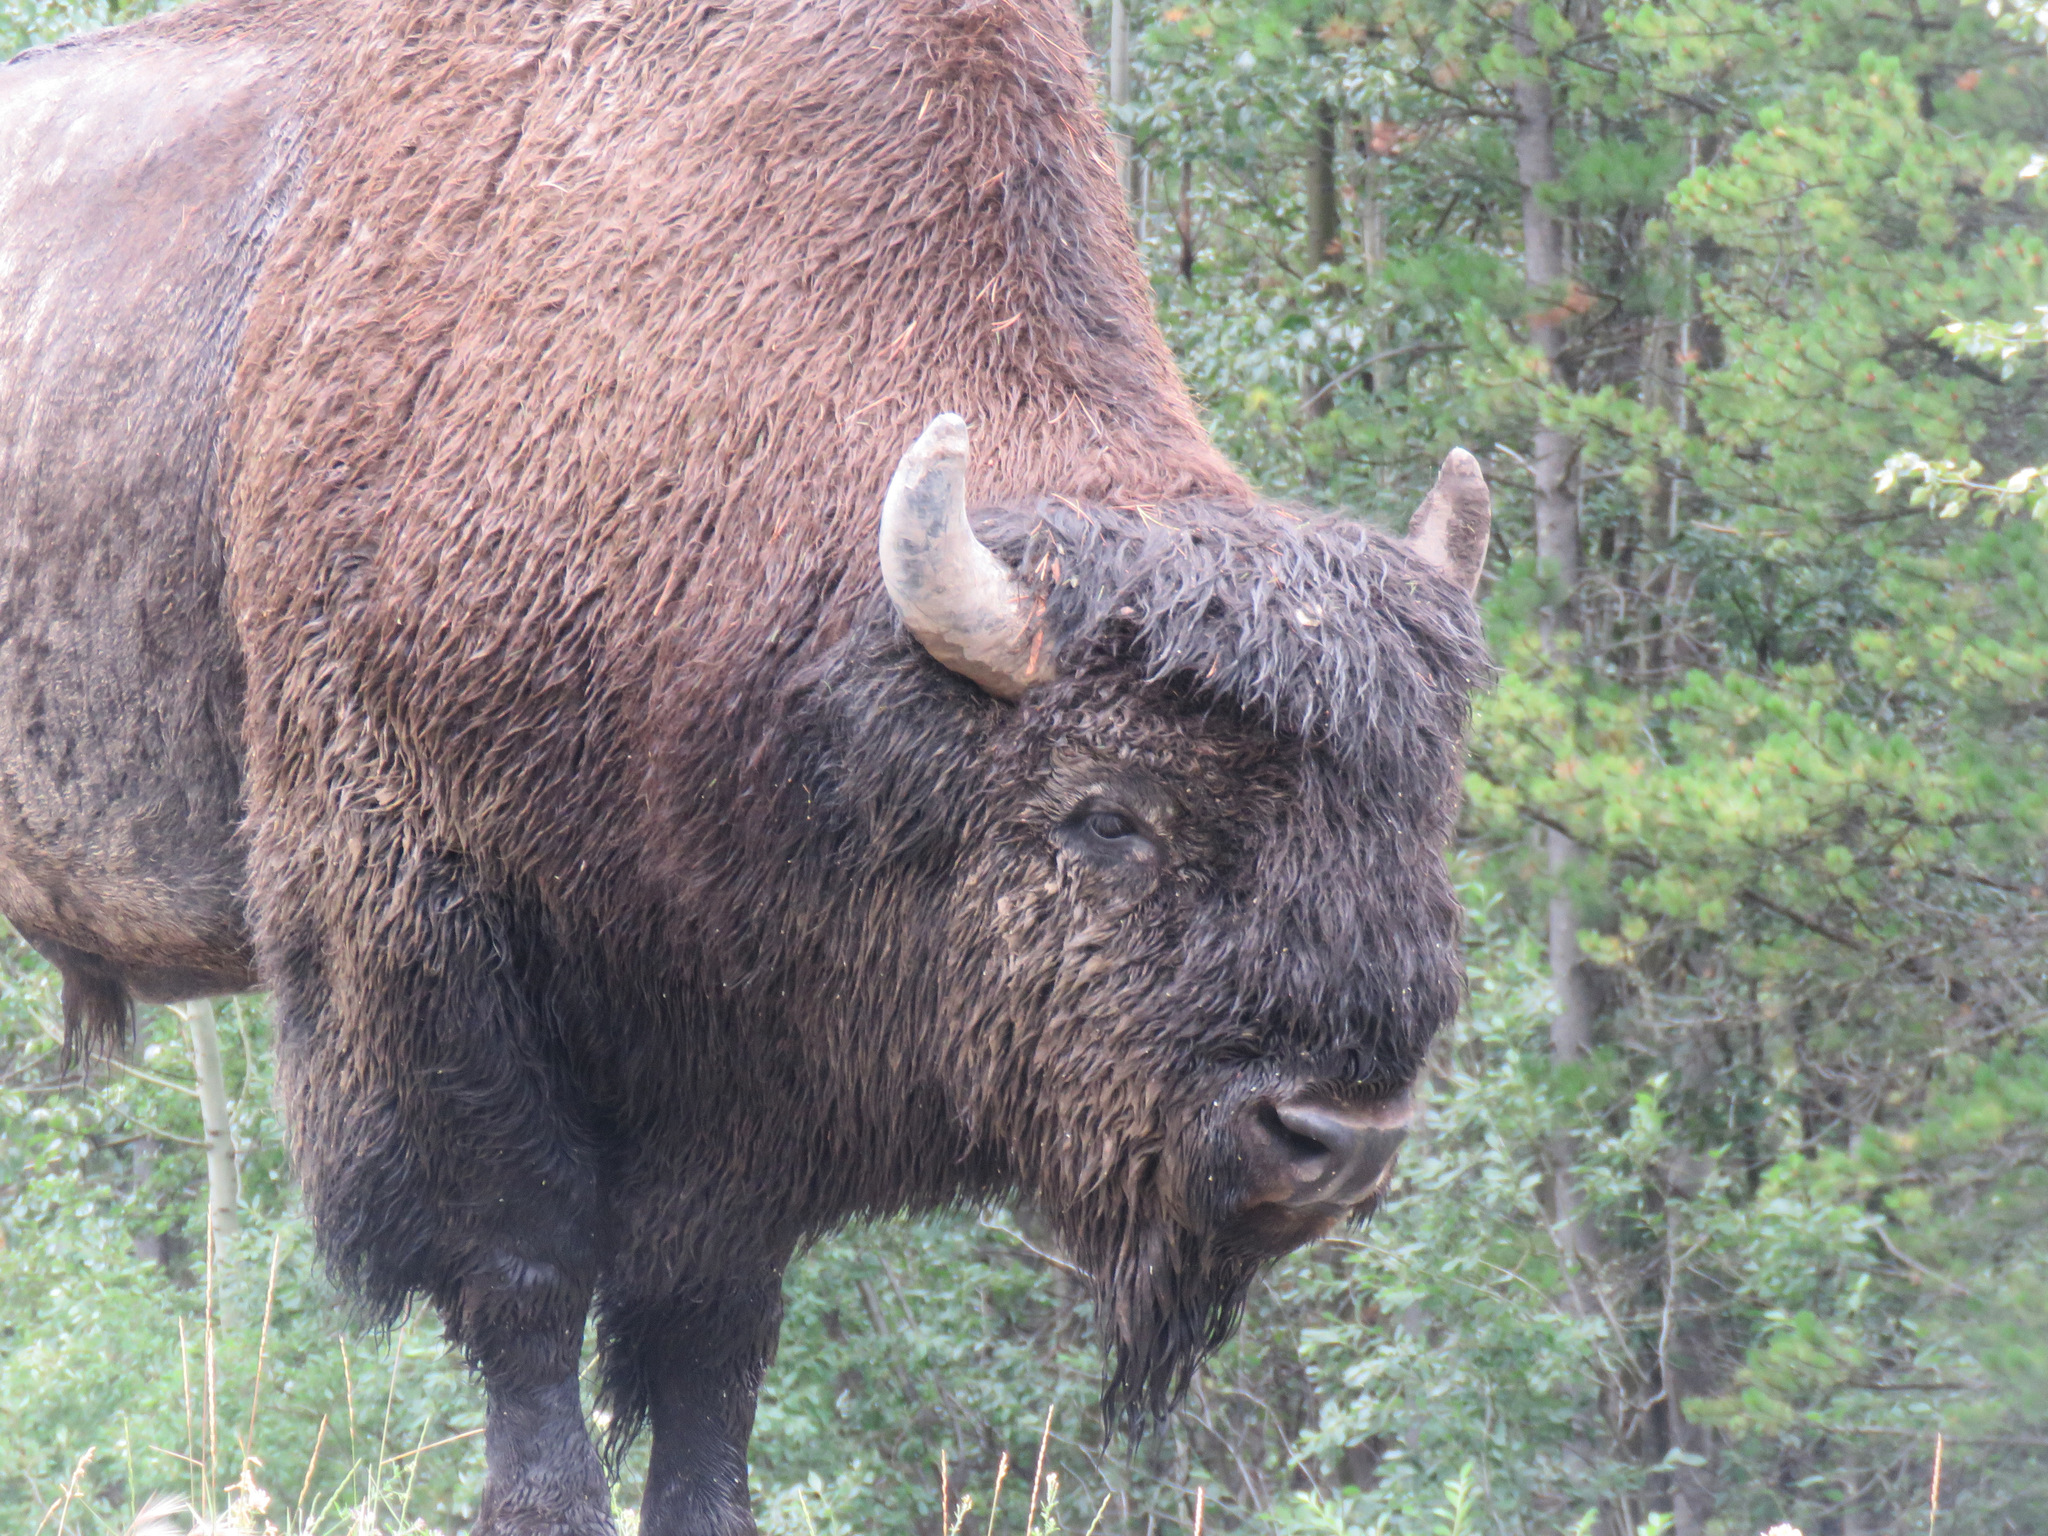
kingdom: Animalia
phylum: Chordata
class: Mammalia
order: Artiodactyla
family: Bovidae
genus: Bison
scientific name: Bison bison
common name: American bison
